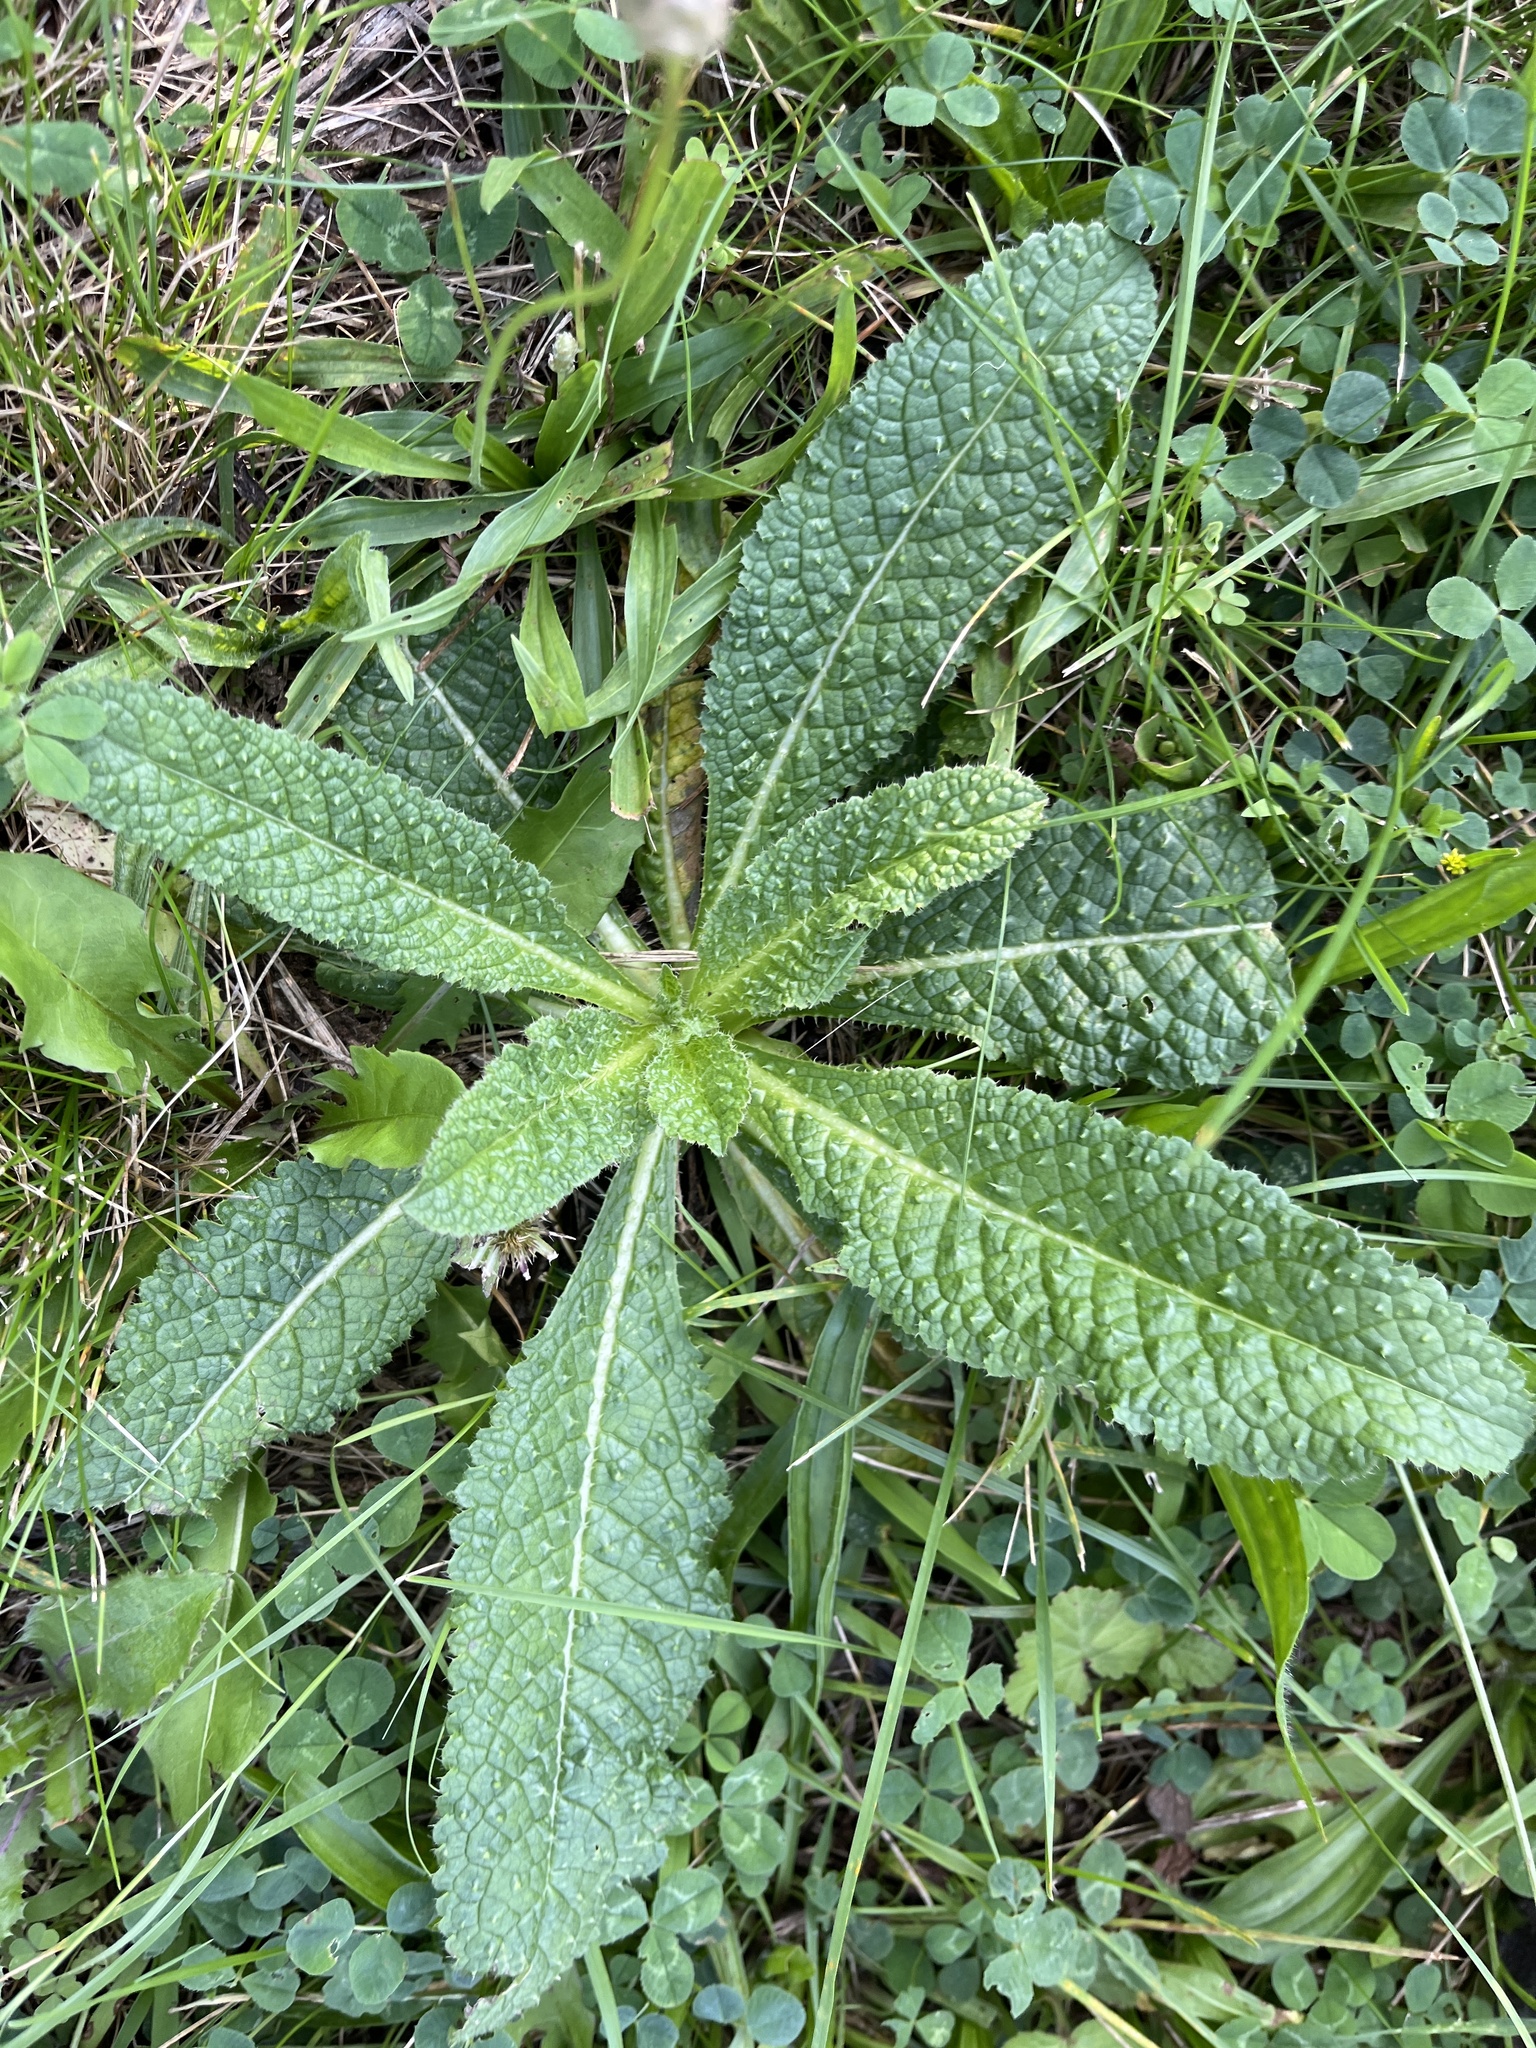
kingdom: Plantae
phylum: Tracheophyta
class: Magnoliopsida
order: Dipsacales
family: Caprifoliaceae
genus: Dipsacus
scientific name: Dipsacus fullonum
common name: Teasel
